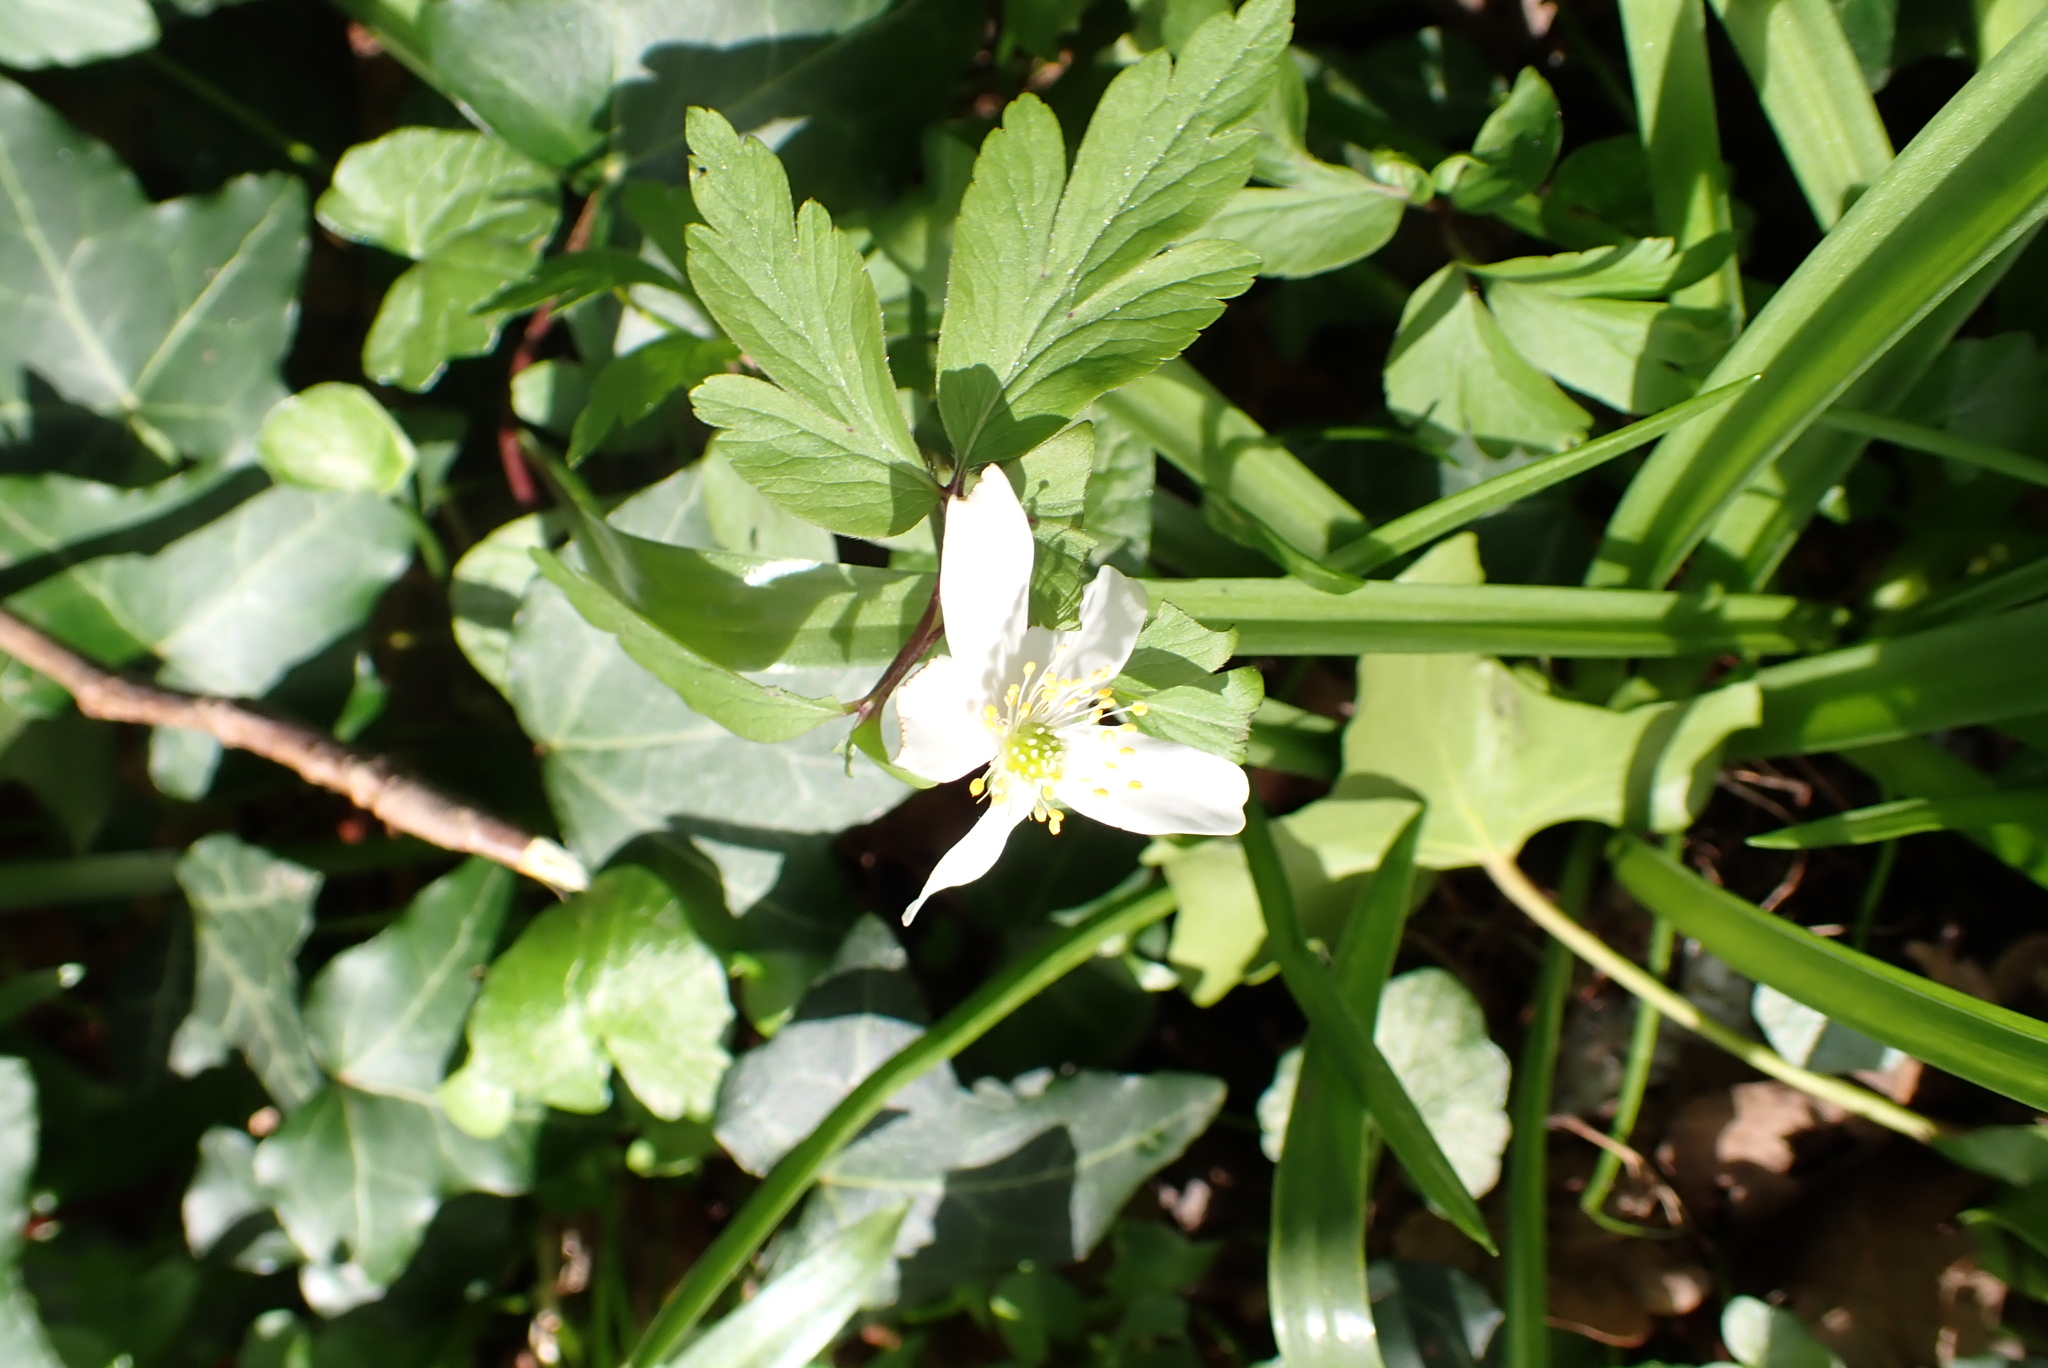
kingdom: Plantae
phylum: Tracheophyta
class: Magnoliopsida
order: Ranunculales
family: Ranunculaceae
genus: Anemone
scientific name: Anemone nemorosa
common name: Wood anemone
